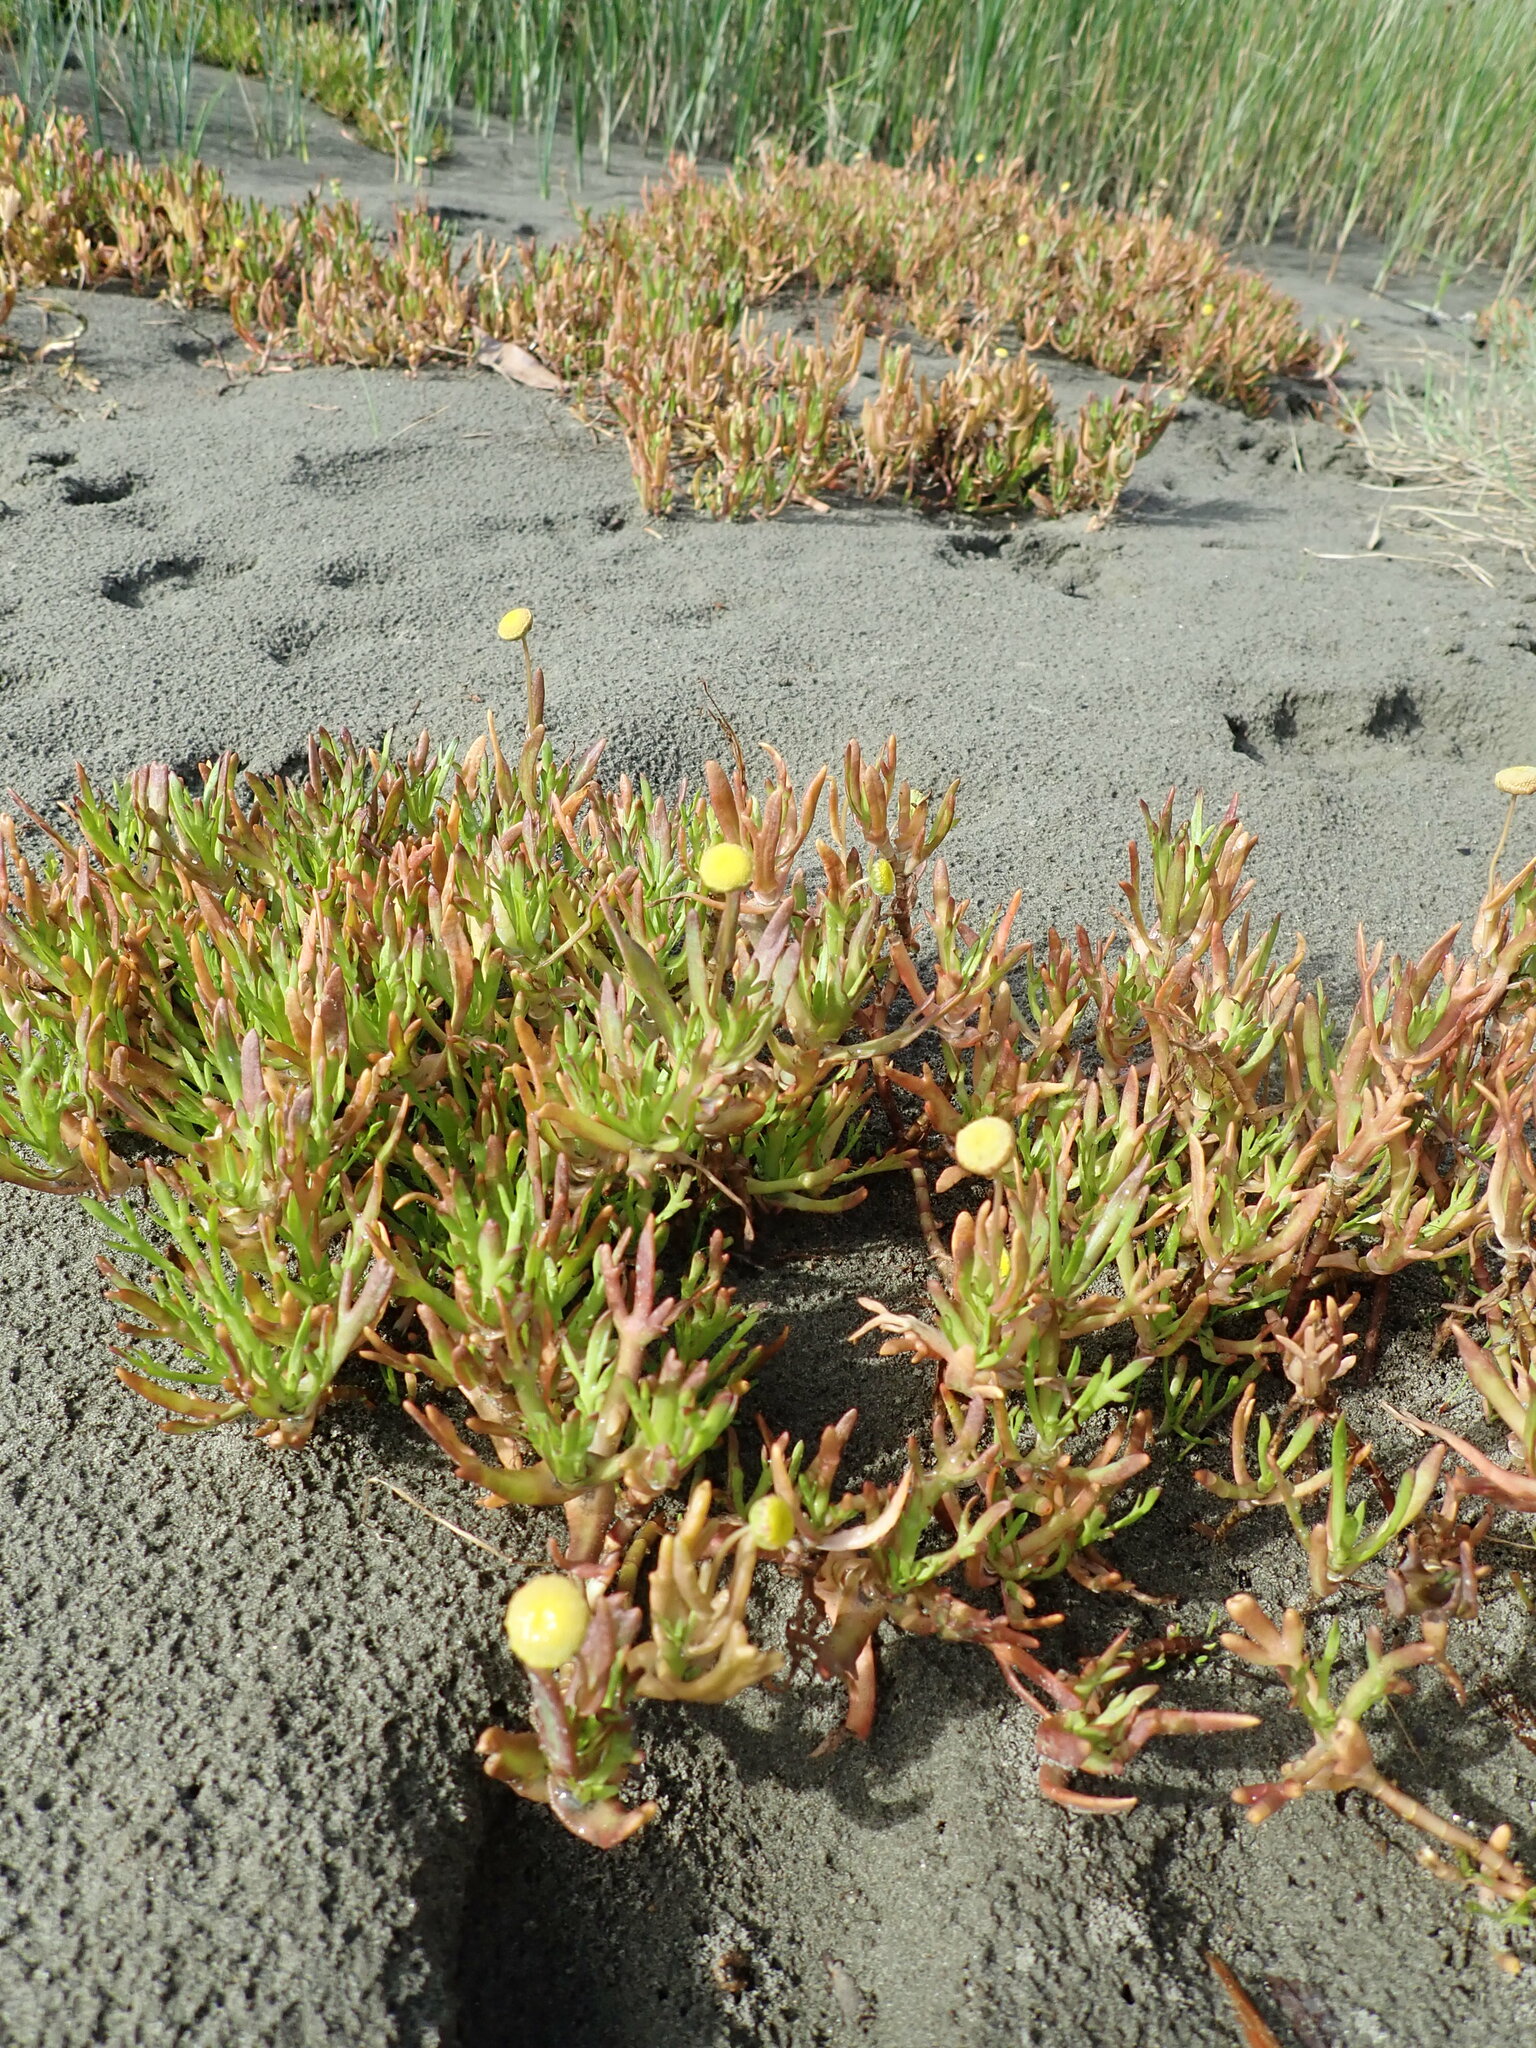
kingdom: Plantae
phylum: Tracheophyta
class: Magnoliopsida
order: Asterales
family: Asteraceae
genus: Cotula
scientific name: Cotula coronopifolia
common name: Buttonweed
